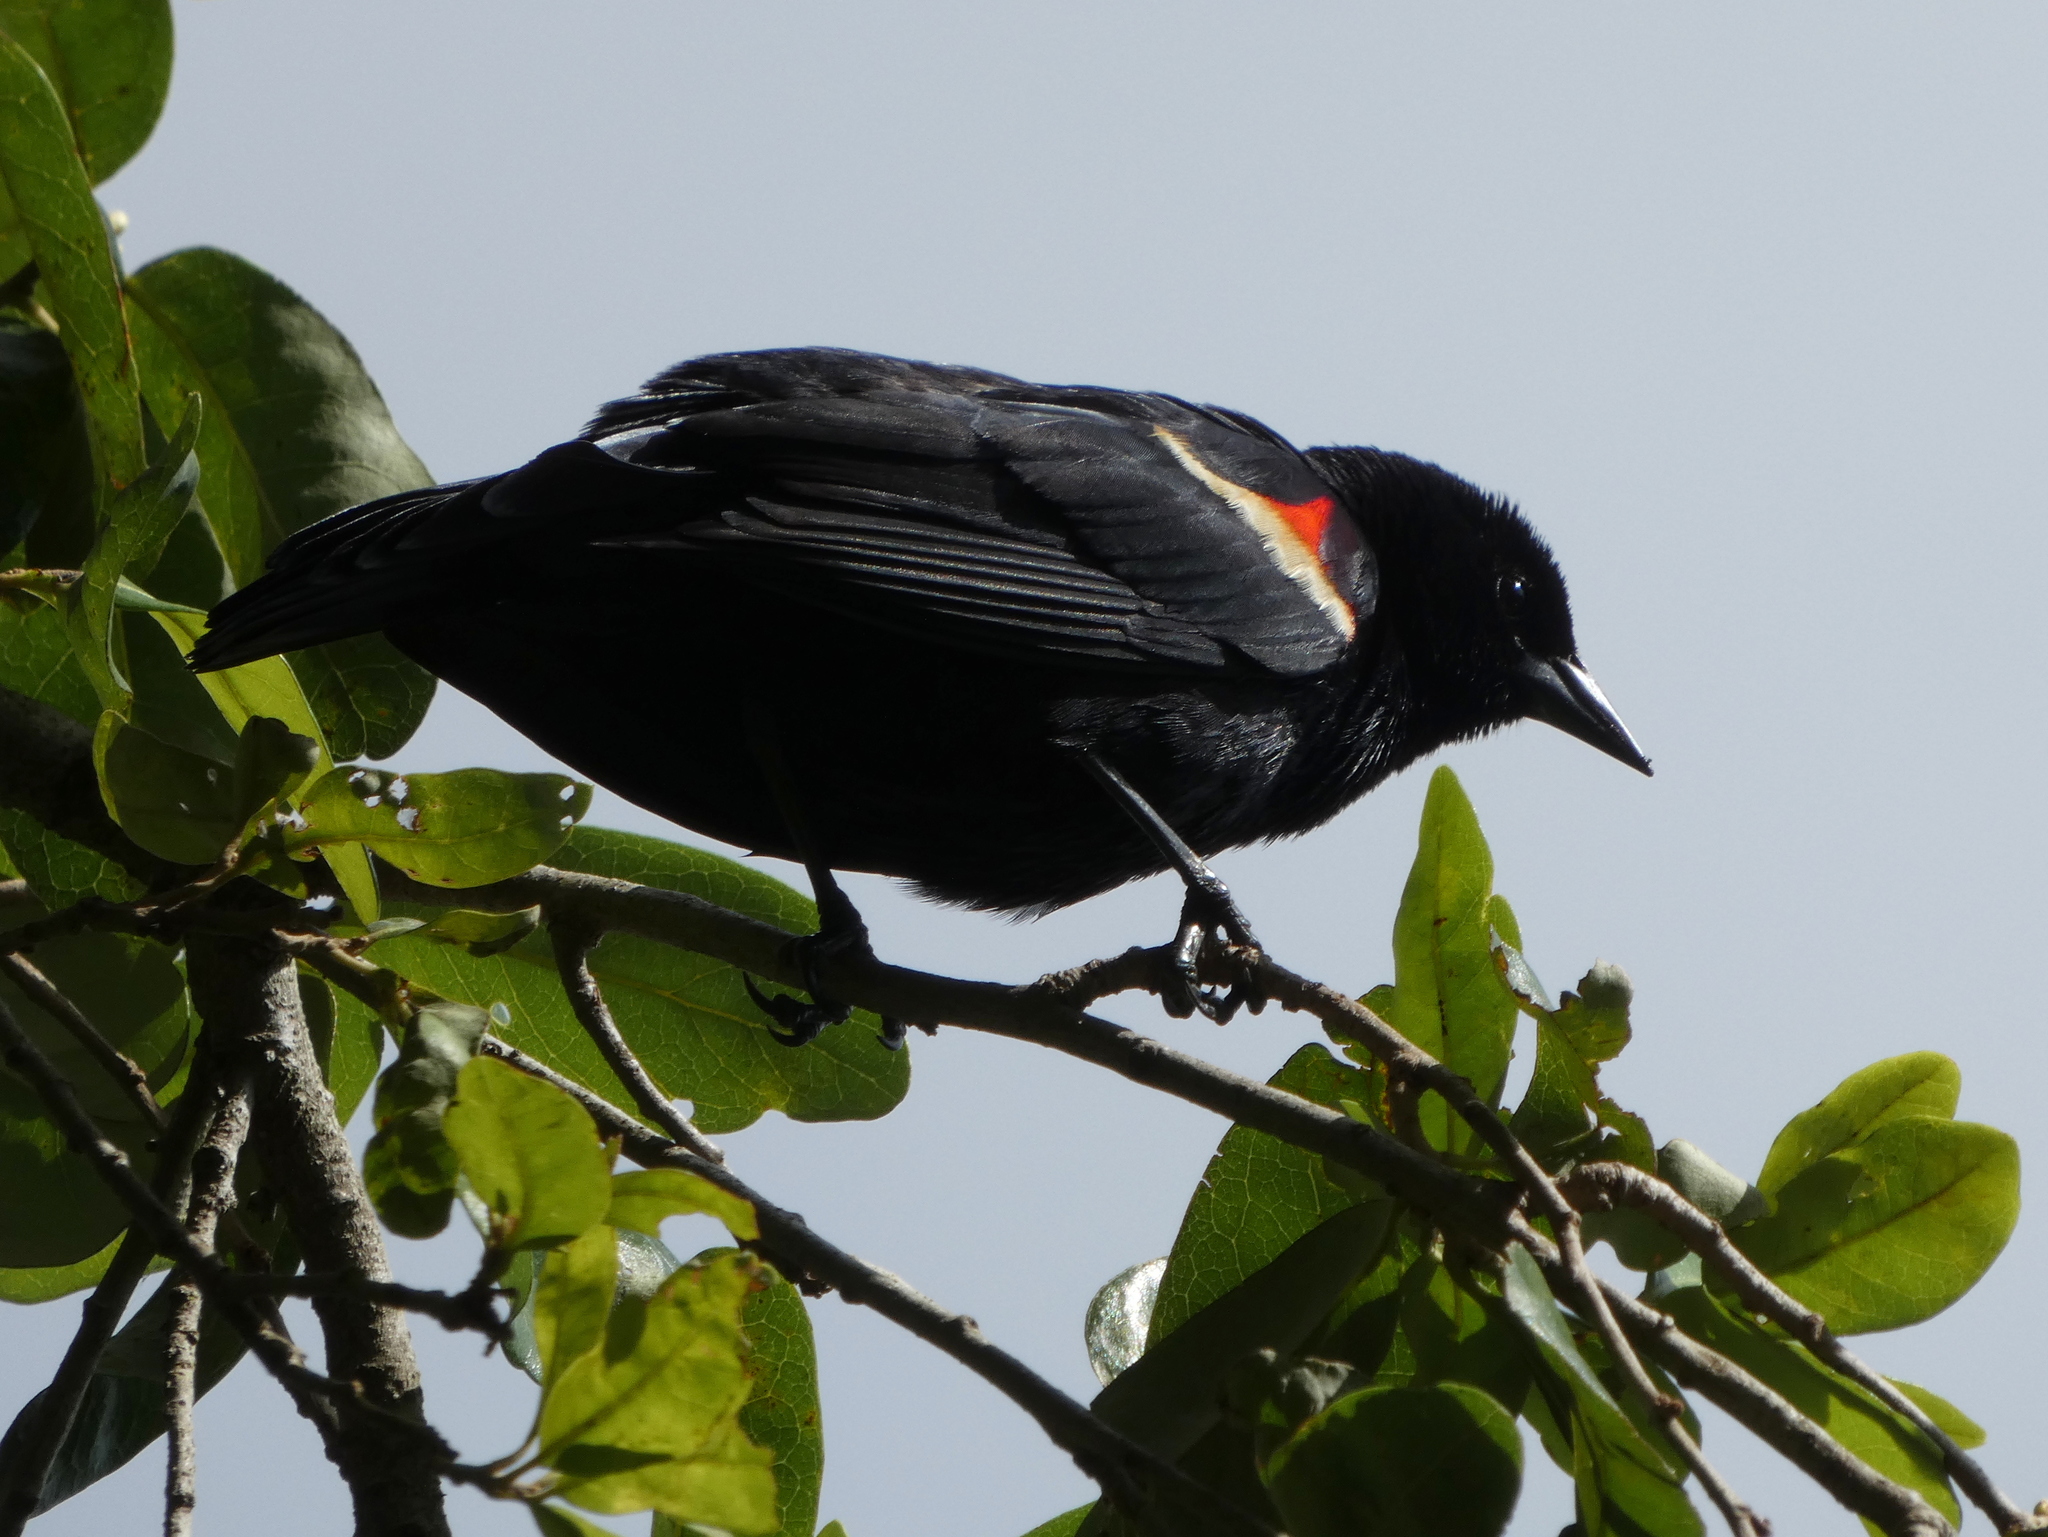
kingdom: Animalia
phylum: Chordata
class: Aves
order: Passeriformes
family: Icteridae
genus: Agelaius
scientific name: Agelaius phoeniceus
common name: Red-winged blackbird
